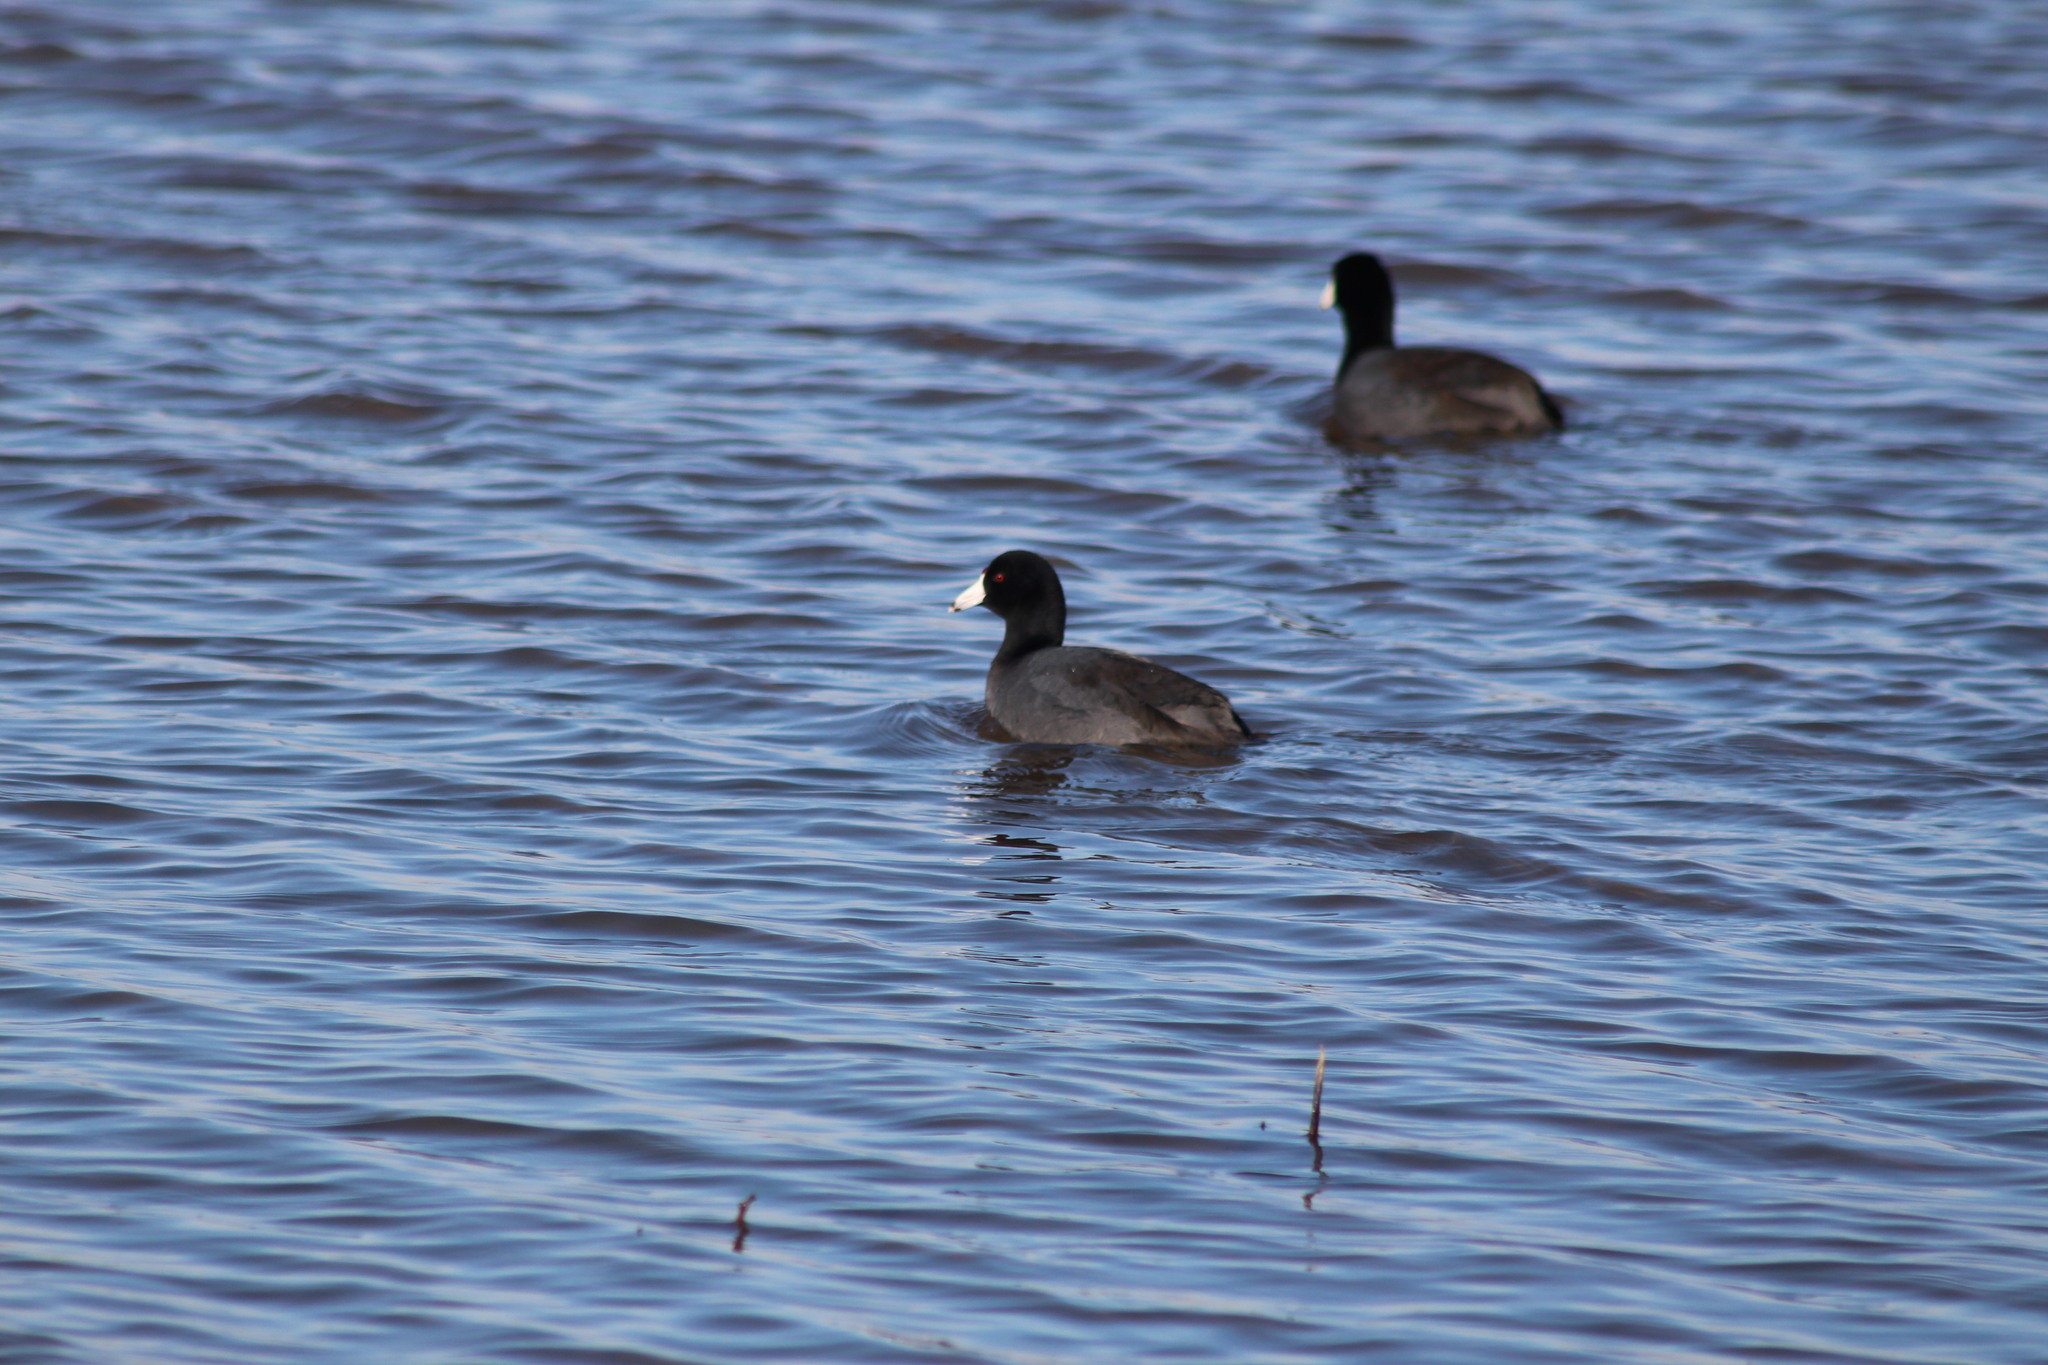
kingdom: Animalia
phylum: Chordata
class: Aves
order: Gruiformes
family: Rallidae
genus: Fulica
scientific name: Fulica americana
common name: American coot
